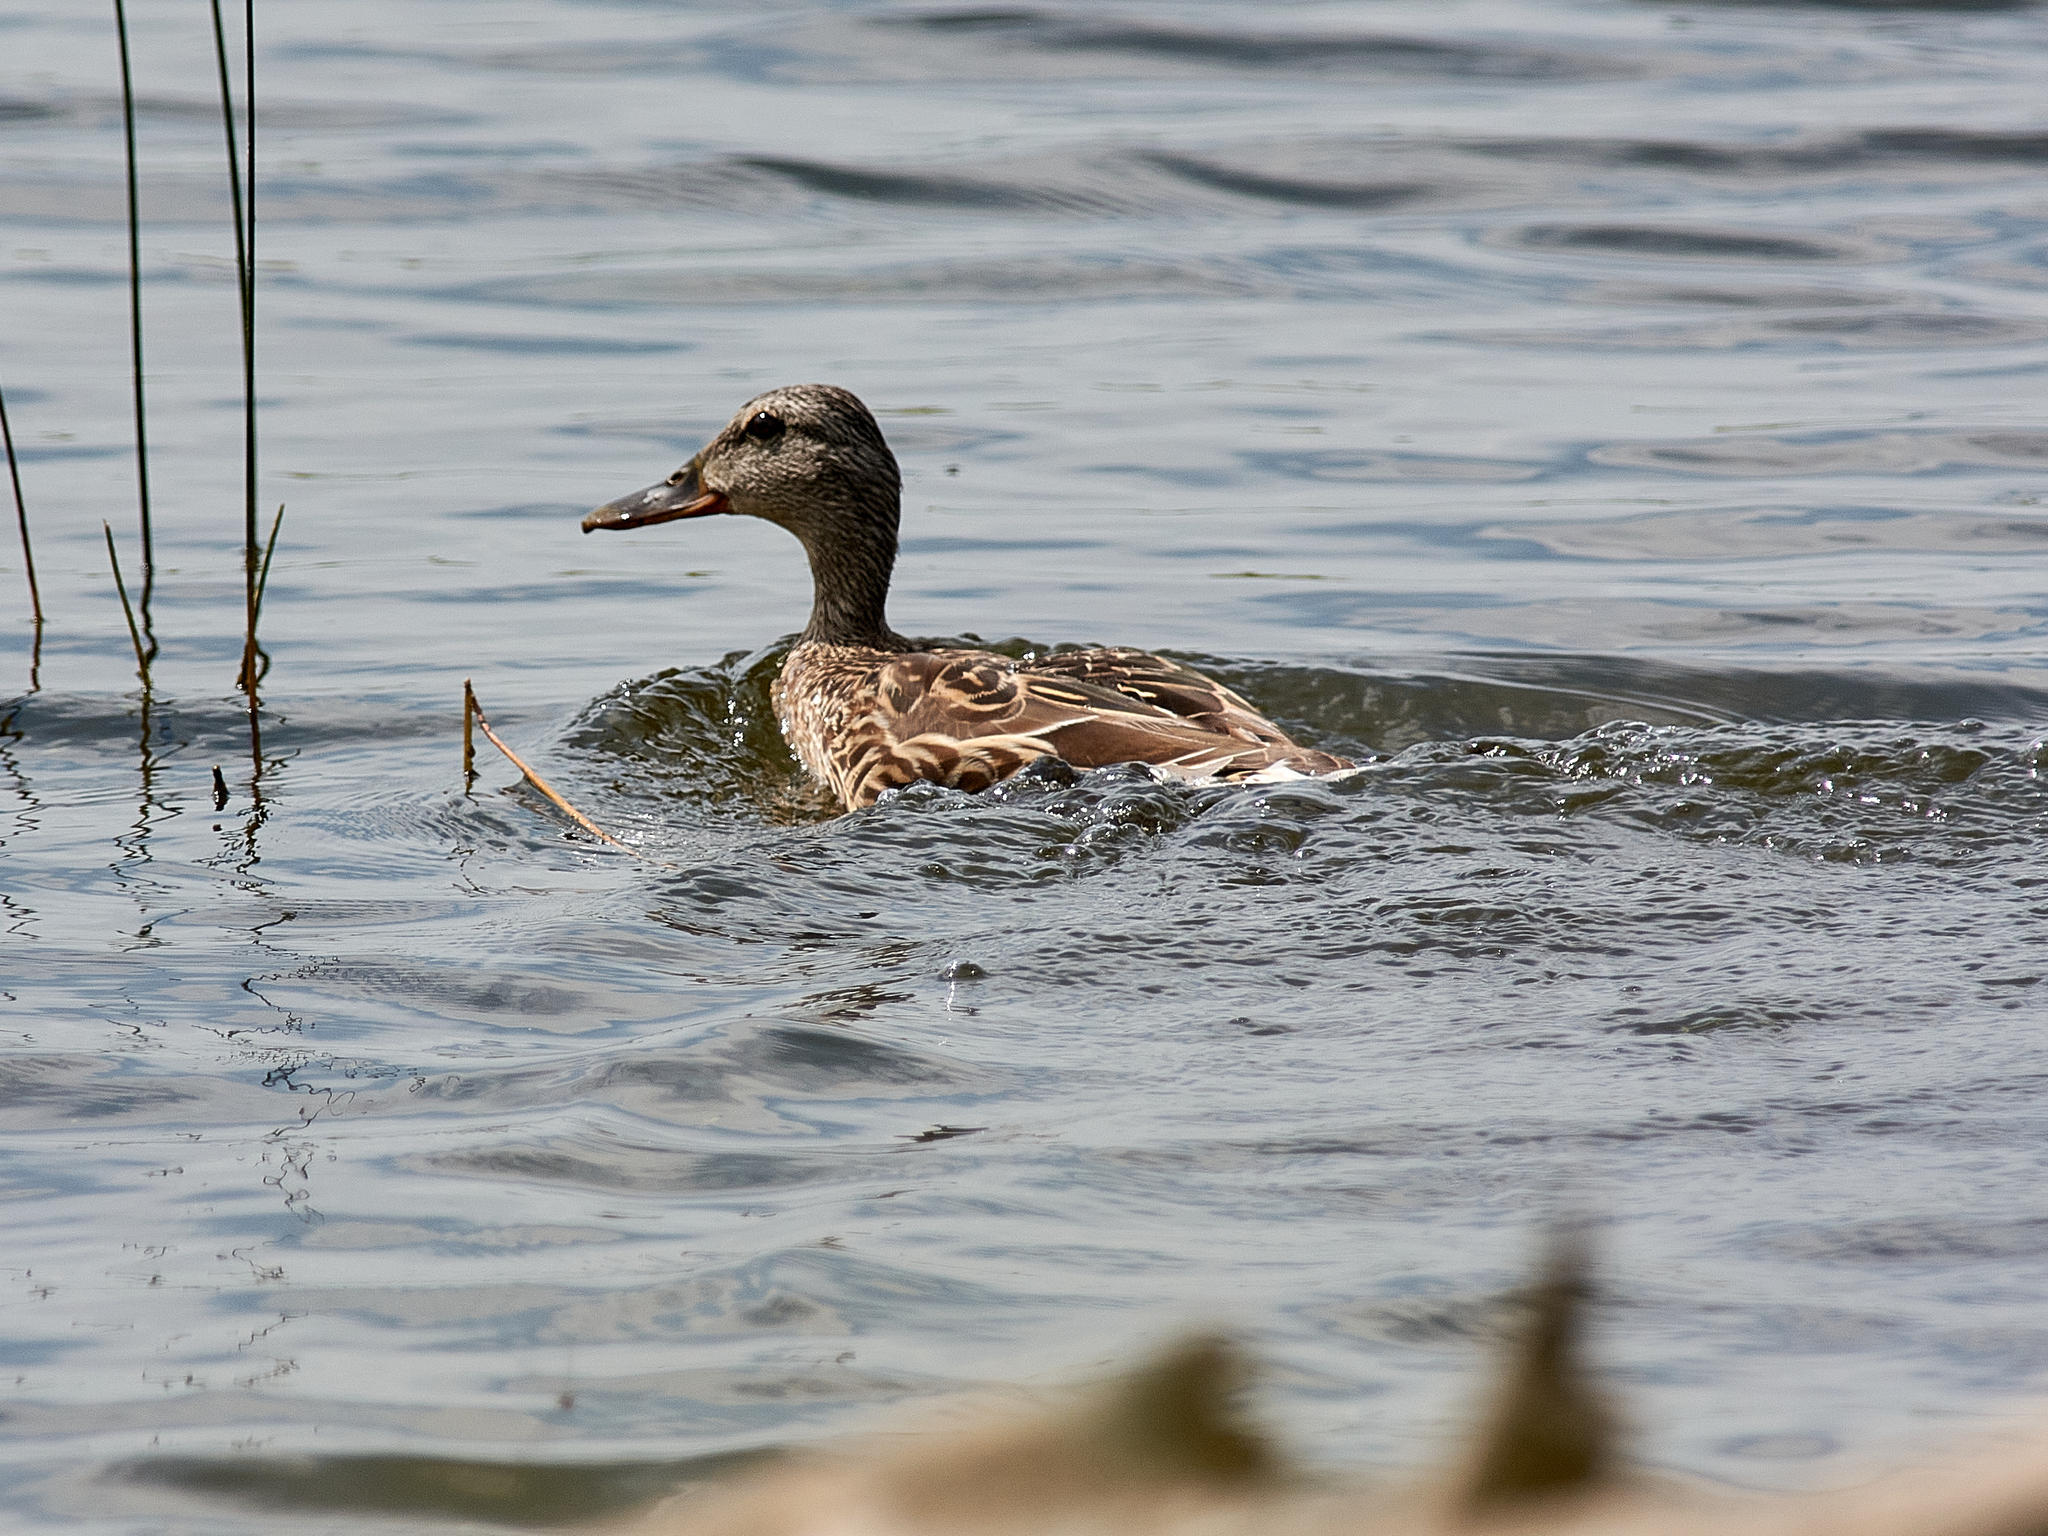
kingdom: Animalia
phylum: Chordata
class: Aves
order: Anseriformes
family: Anatidae
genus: Anas
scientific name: Anas platyrhynchos
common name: Mallard
